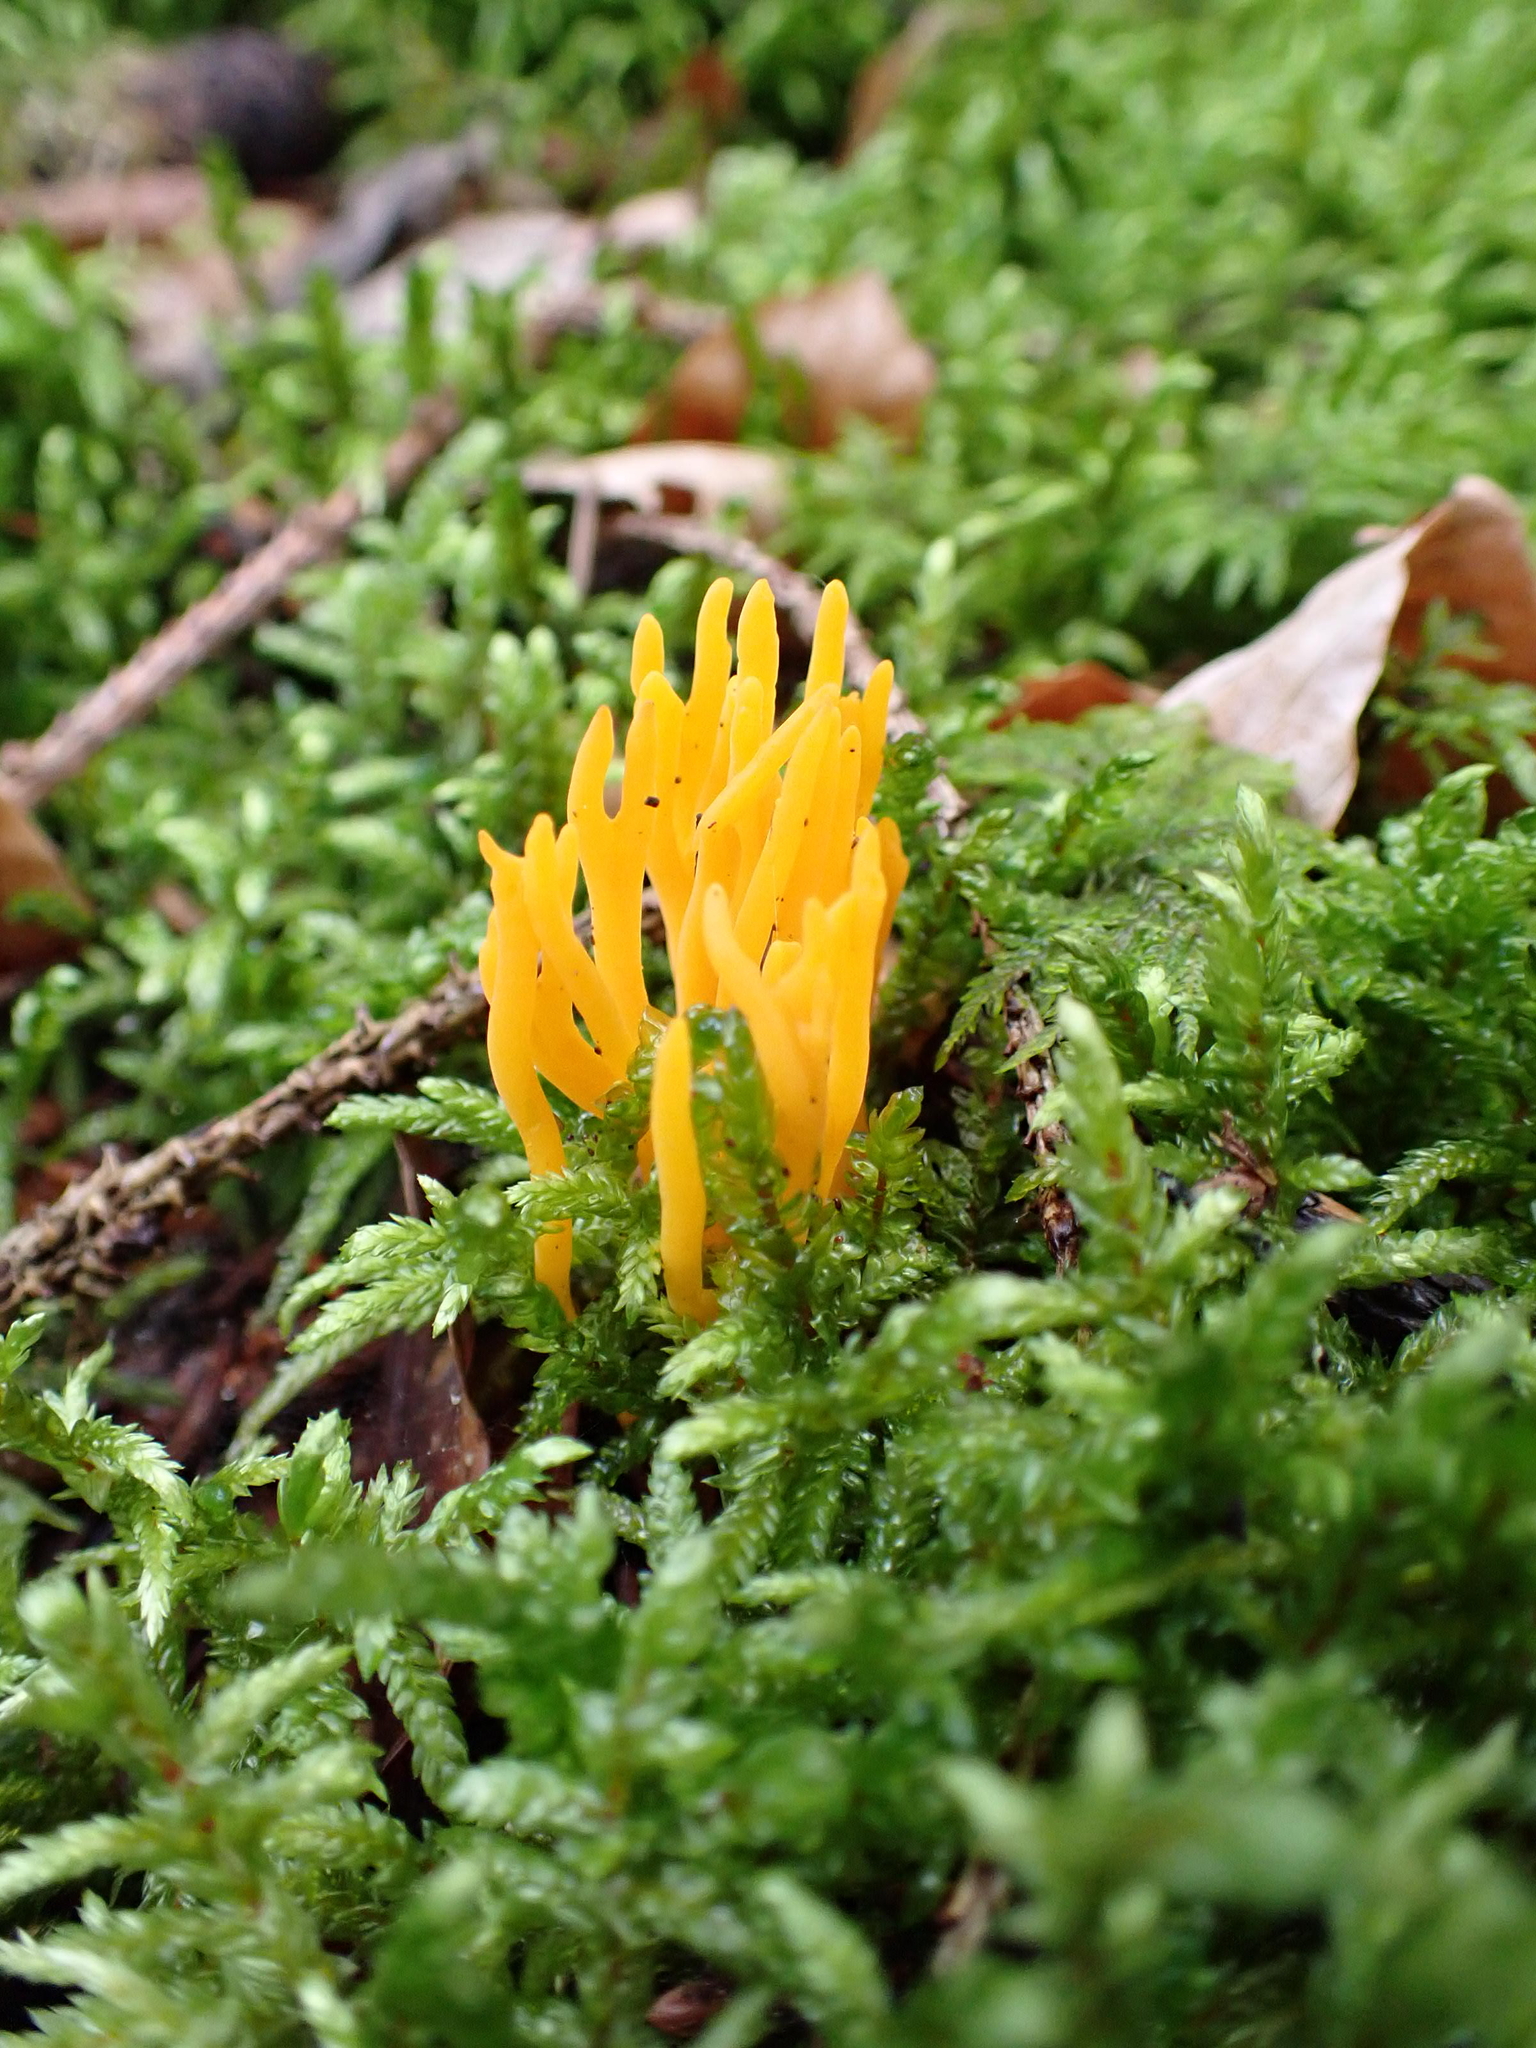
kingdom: Fungi
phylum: Basidiomycota
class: Dacrymycetes
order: Dacrymycetales
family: Dacrymycetaceae
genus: Calocera
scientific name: Calocera viscosa
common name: Yellow stagshorn
